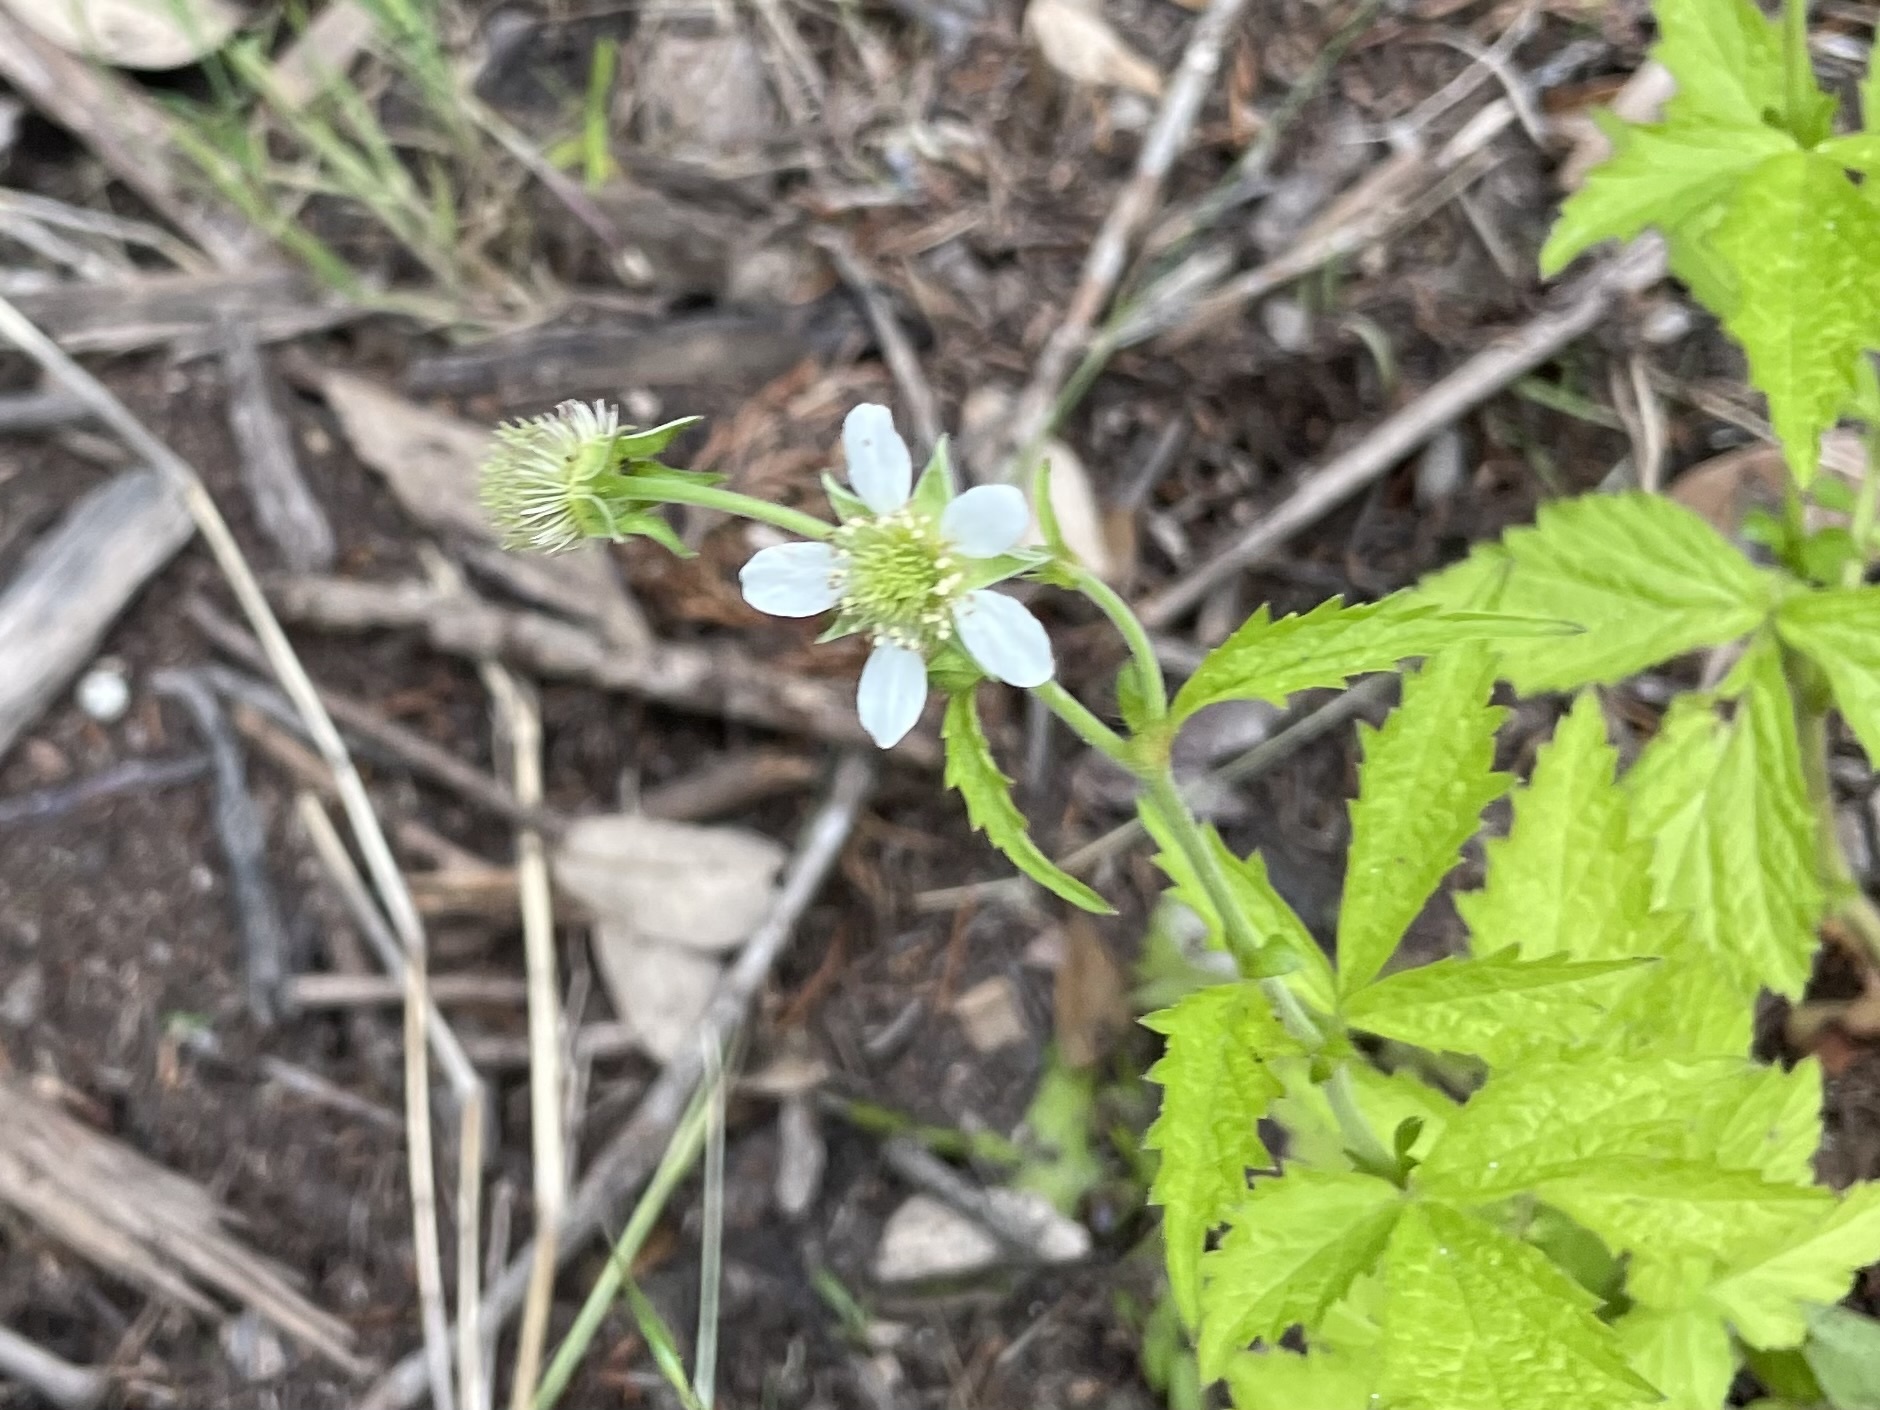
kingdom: Plantae
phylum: Tracheophyta
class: Magnoliopsida
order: Rosales
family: Rosaceae
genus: Geum
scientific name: Geum canadense
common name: White avens
